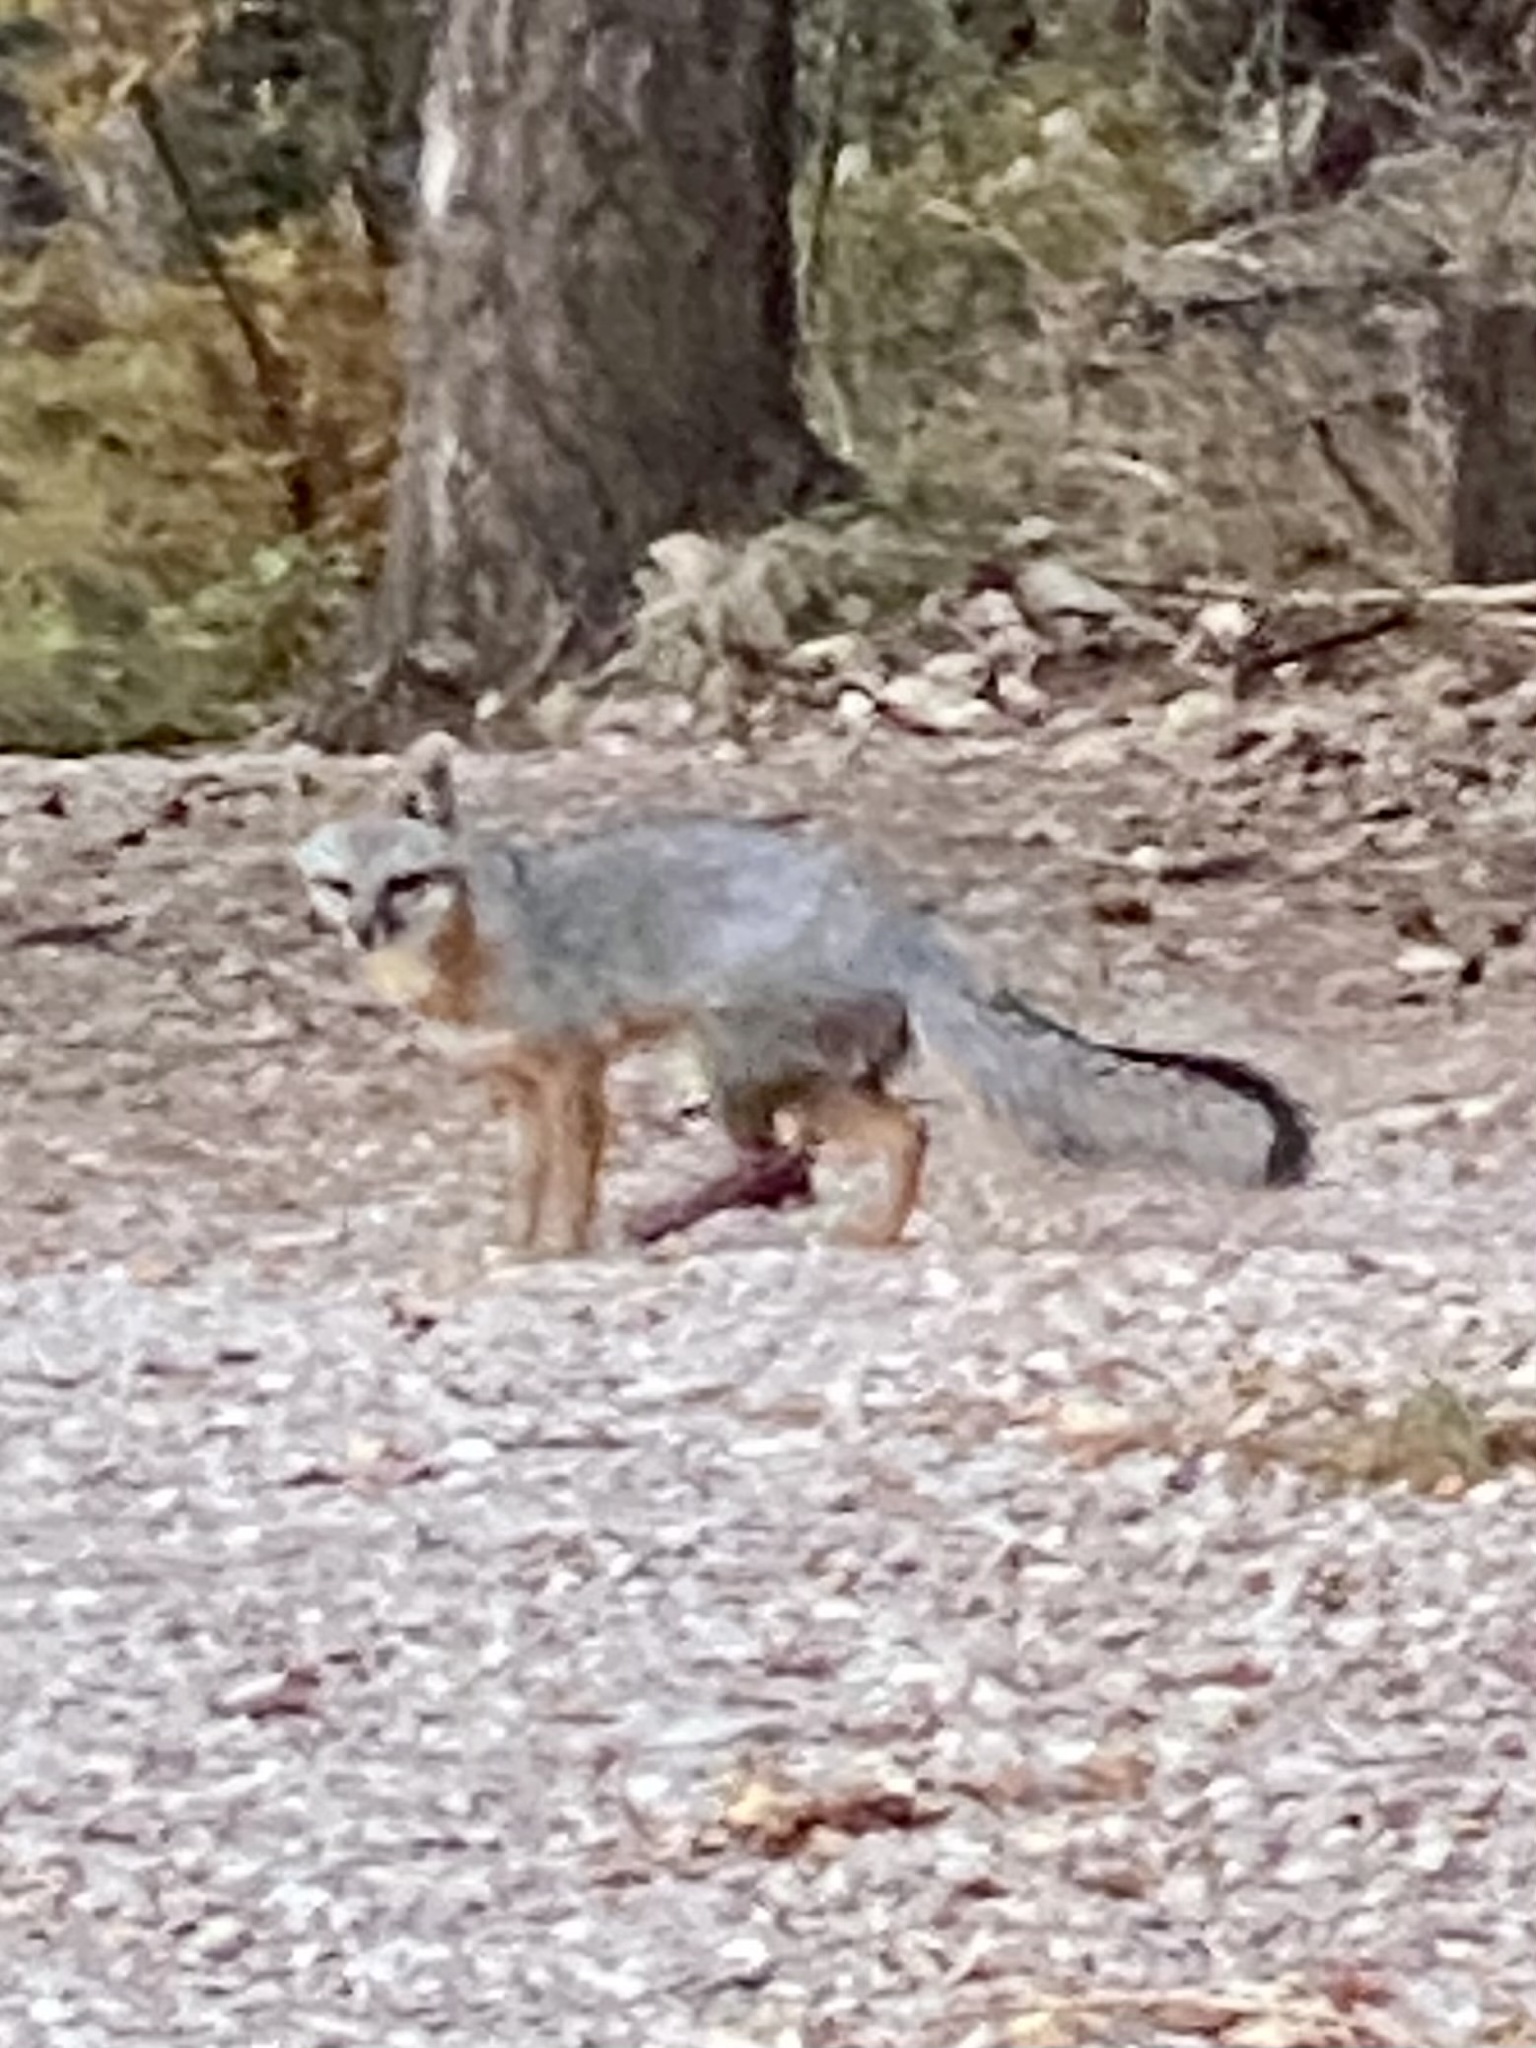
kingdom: Animalia
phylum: Chordata
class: Mammalia
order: Carnivora
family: Canidae
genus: Urocyon
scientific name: Urocyon cinereoargenteus
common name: Gray fox
